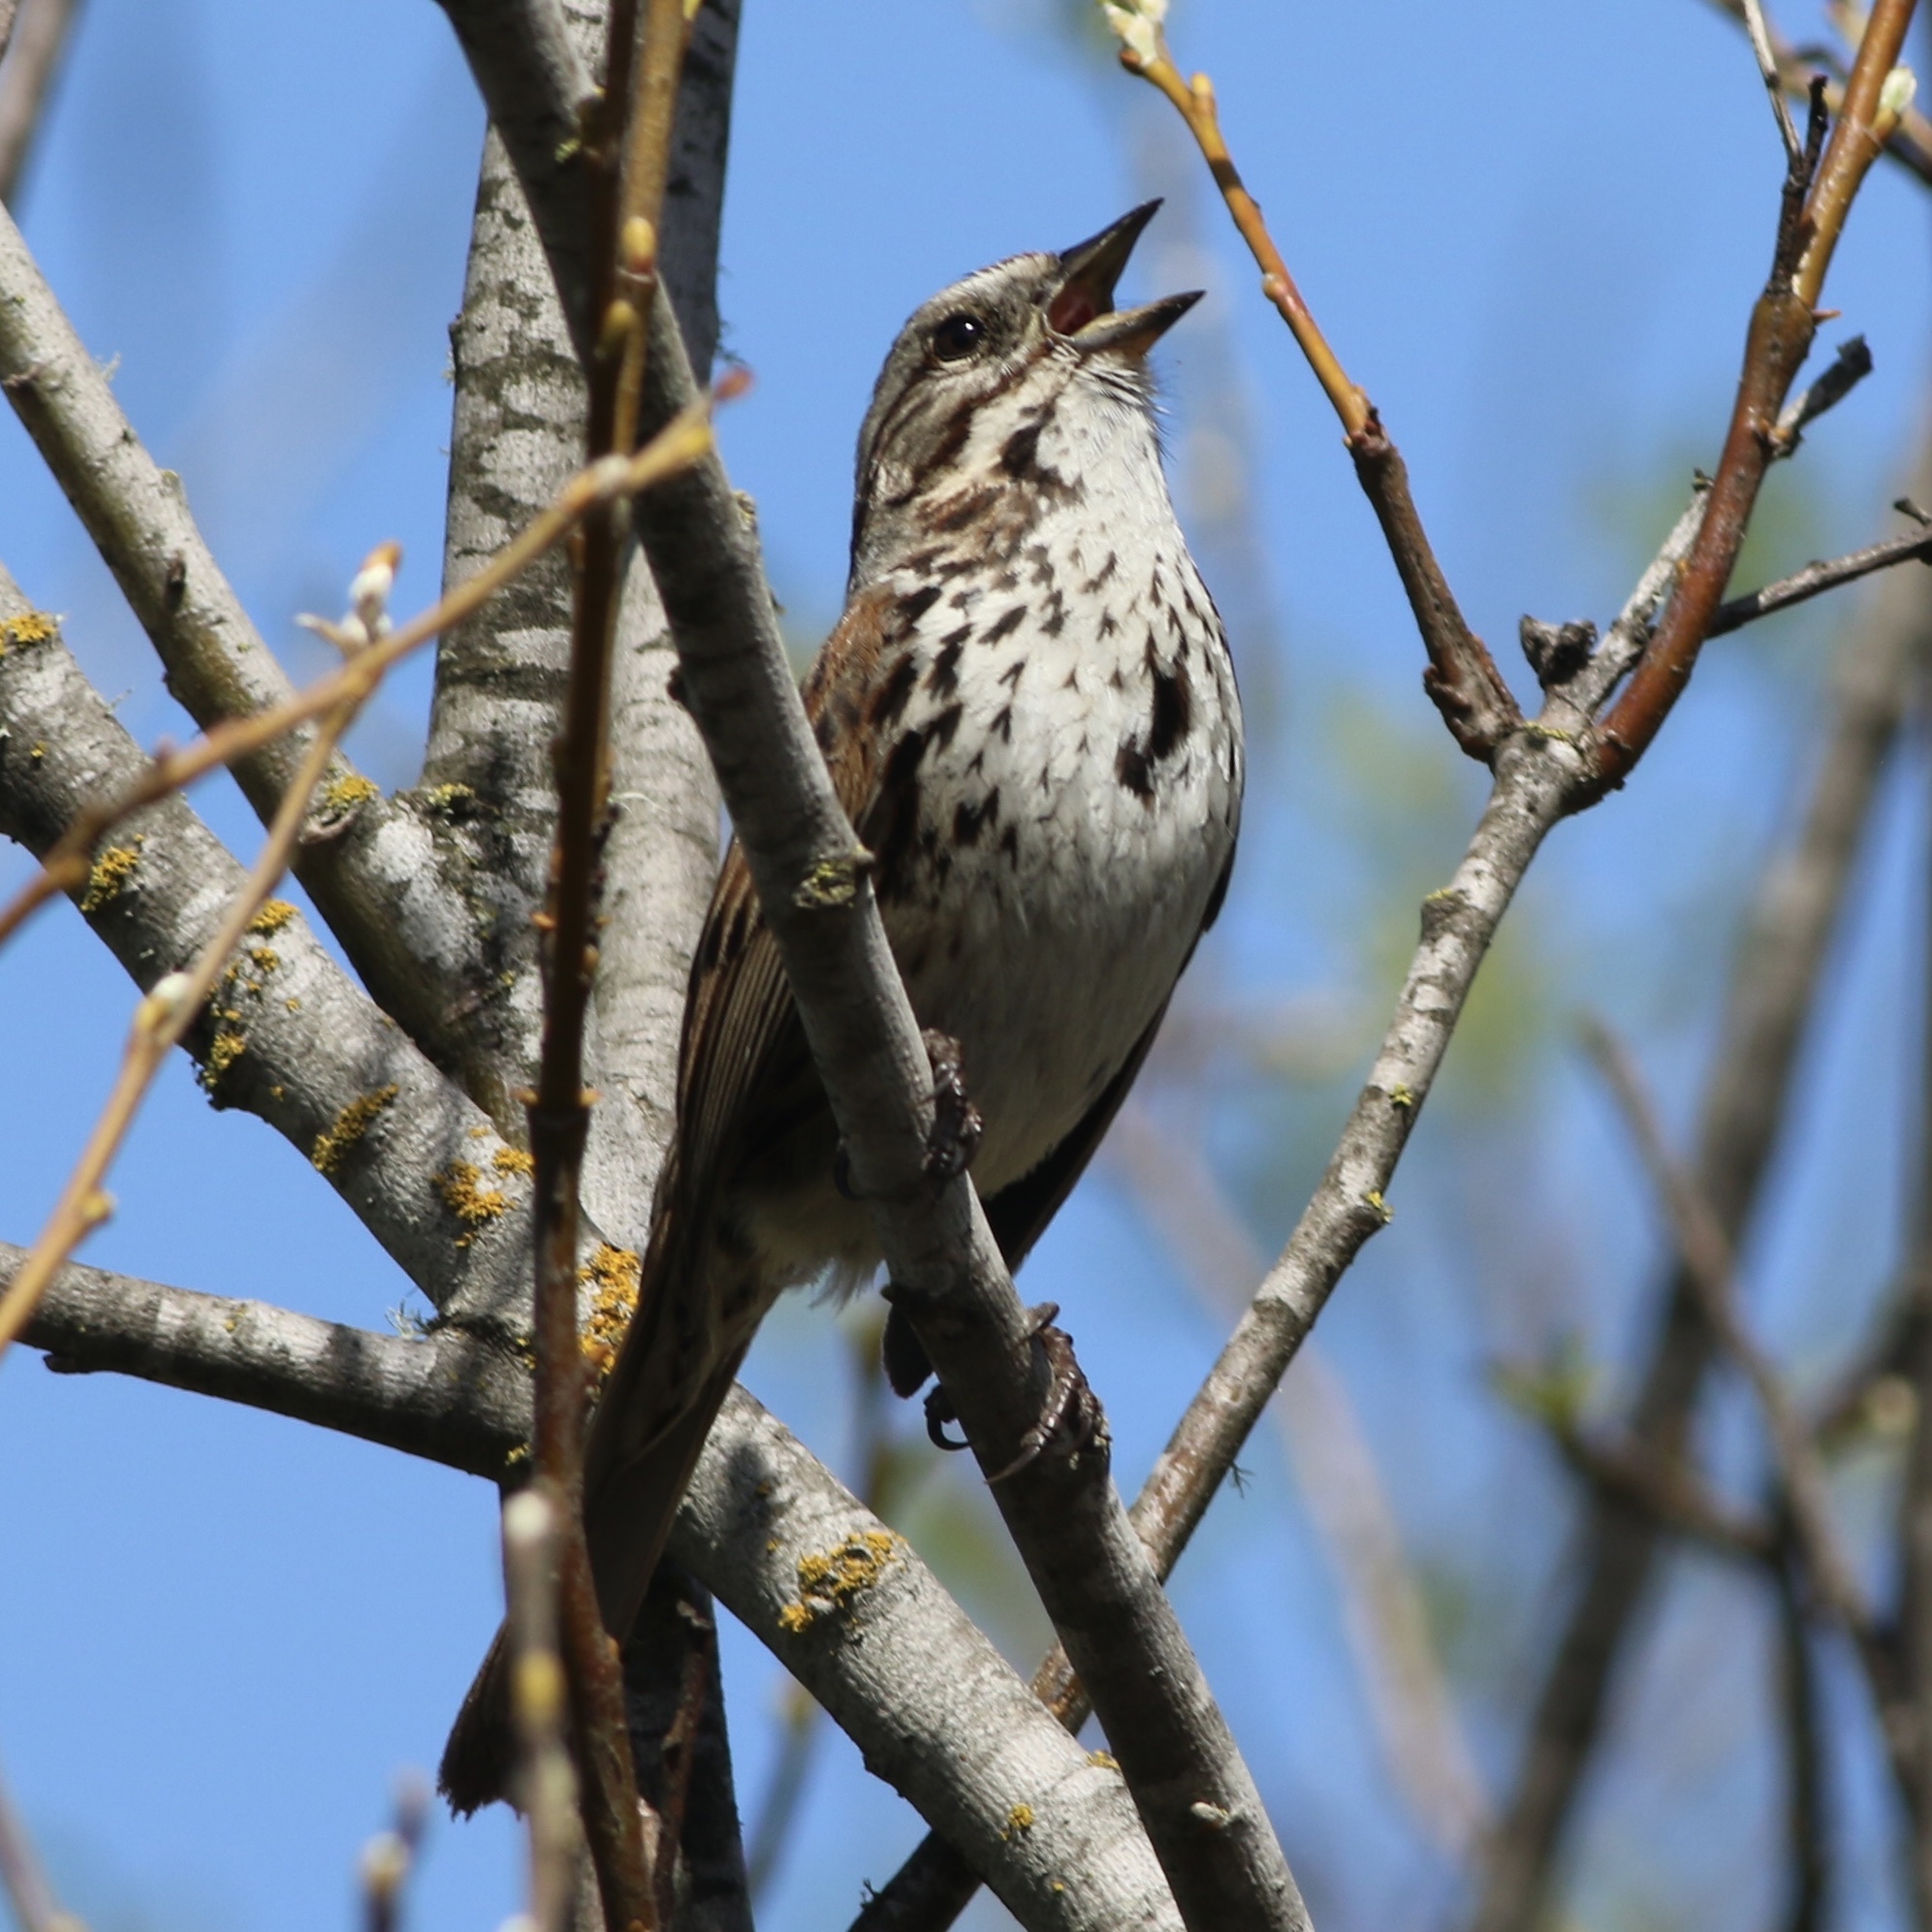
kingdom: Animalia
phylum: Chordata
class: Aves
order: Passeriformes
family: Passerellidae
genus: Melospiza
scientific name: Melospiza melodia
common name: Song sparrow
